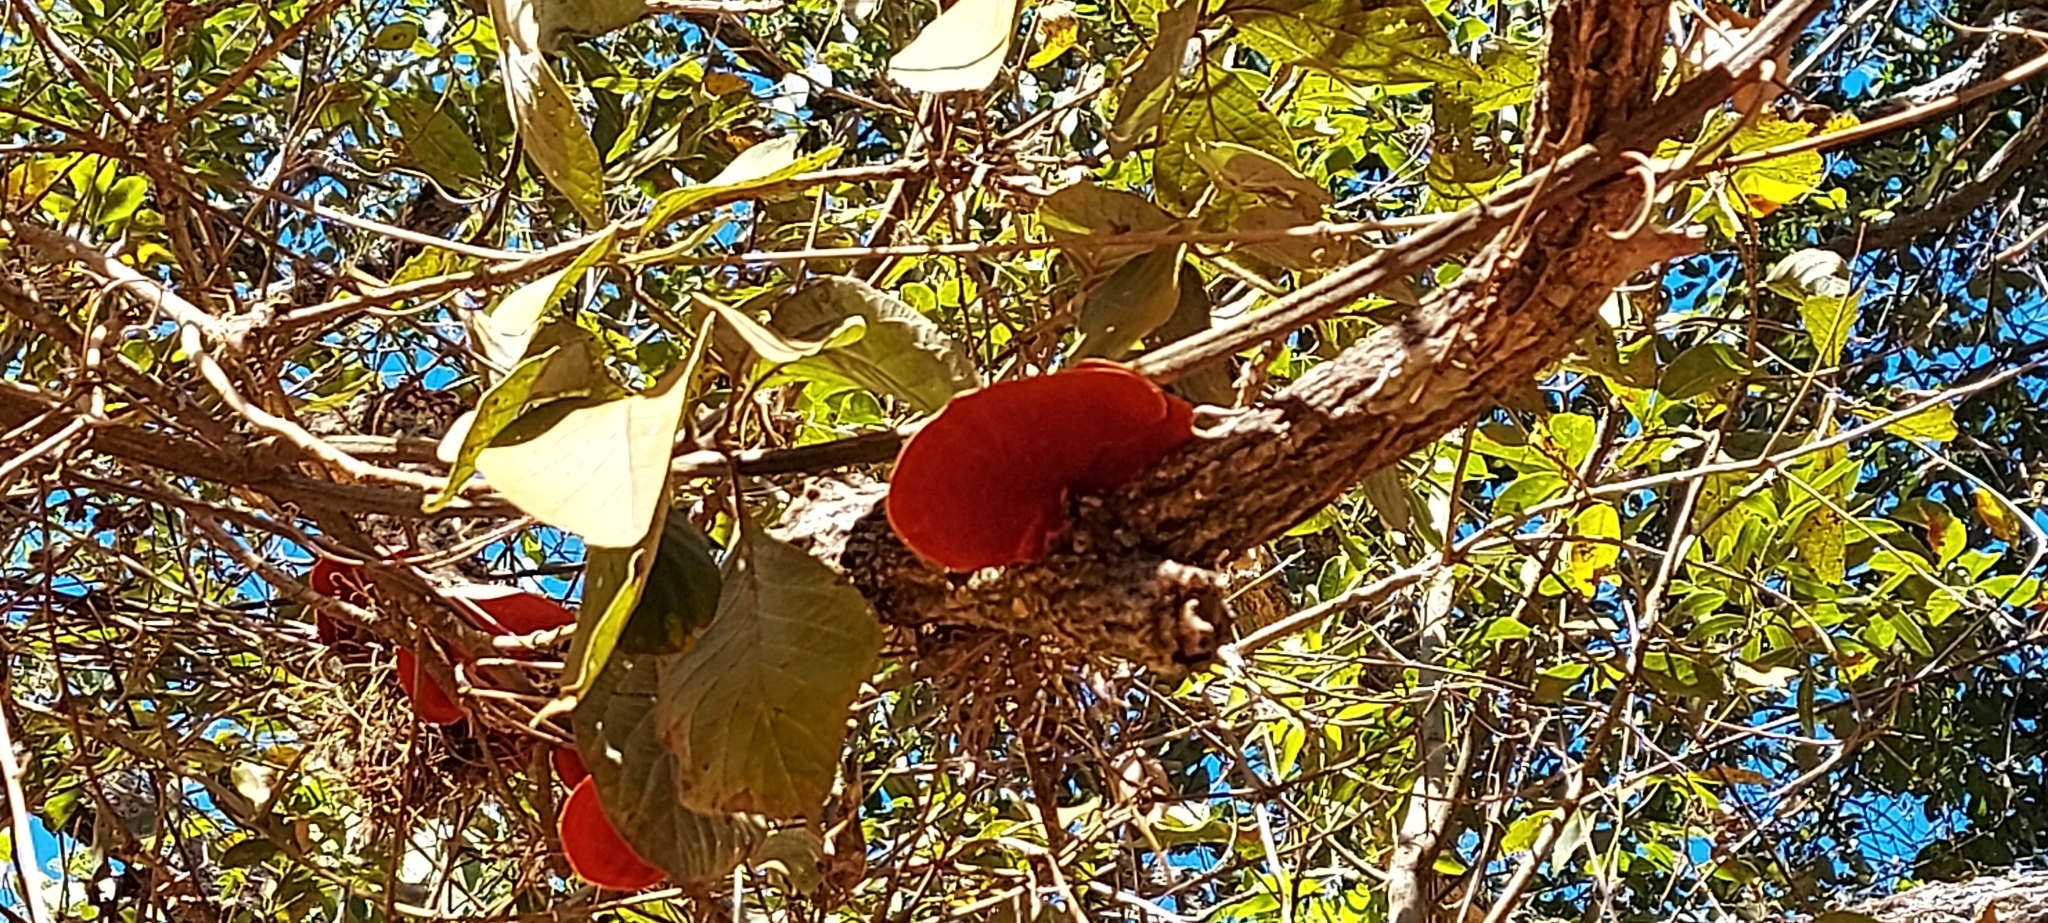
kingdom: Fungi
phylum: Basidiomycota
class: Agaricomycetes
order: Polyporales
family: Polyporaceae
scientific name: Polyporaceae
